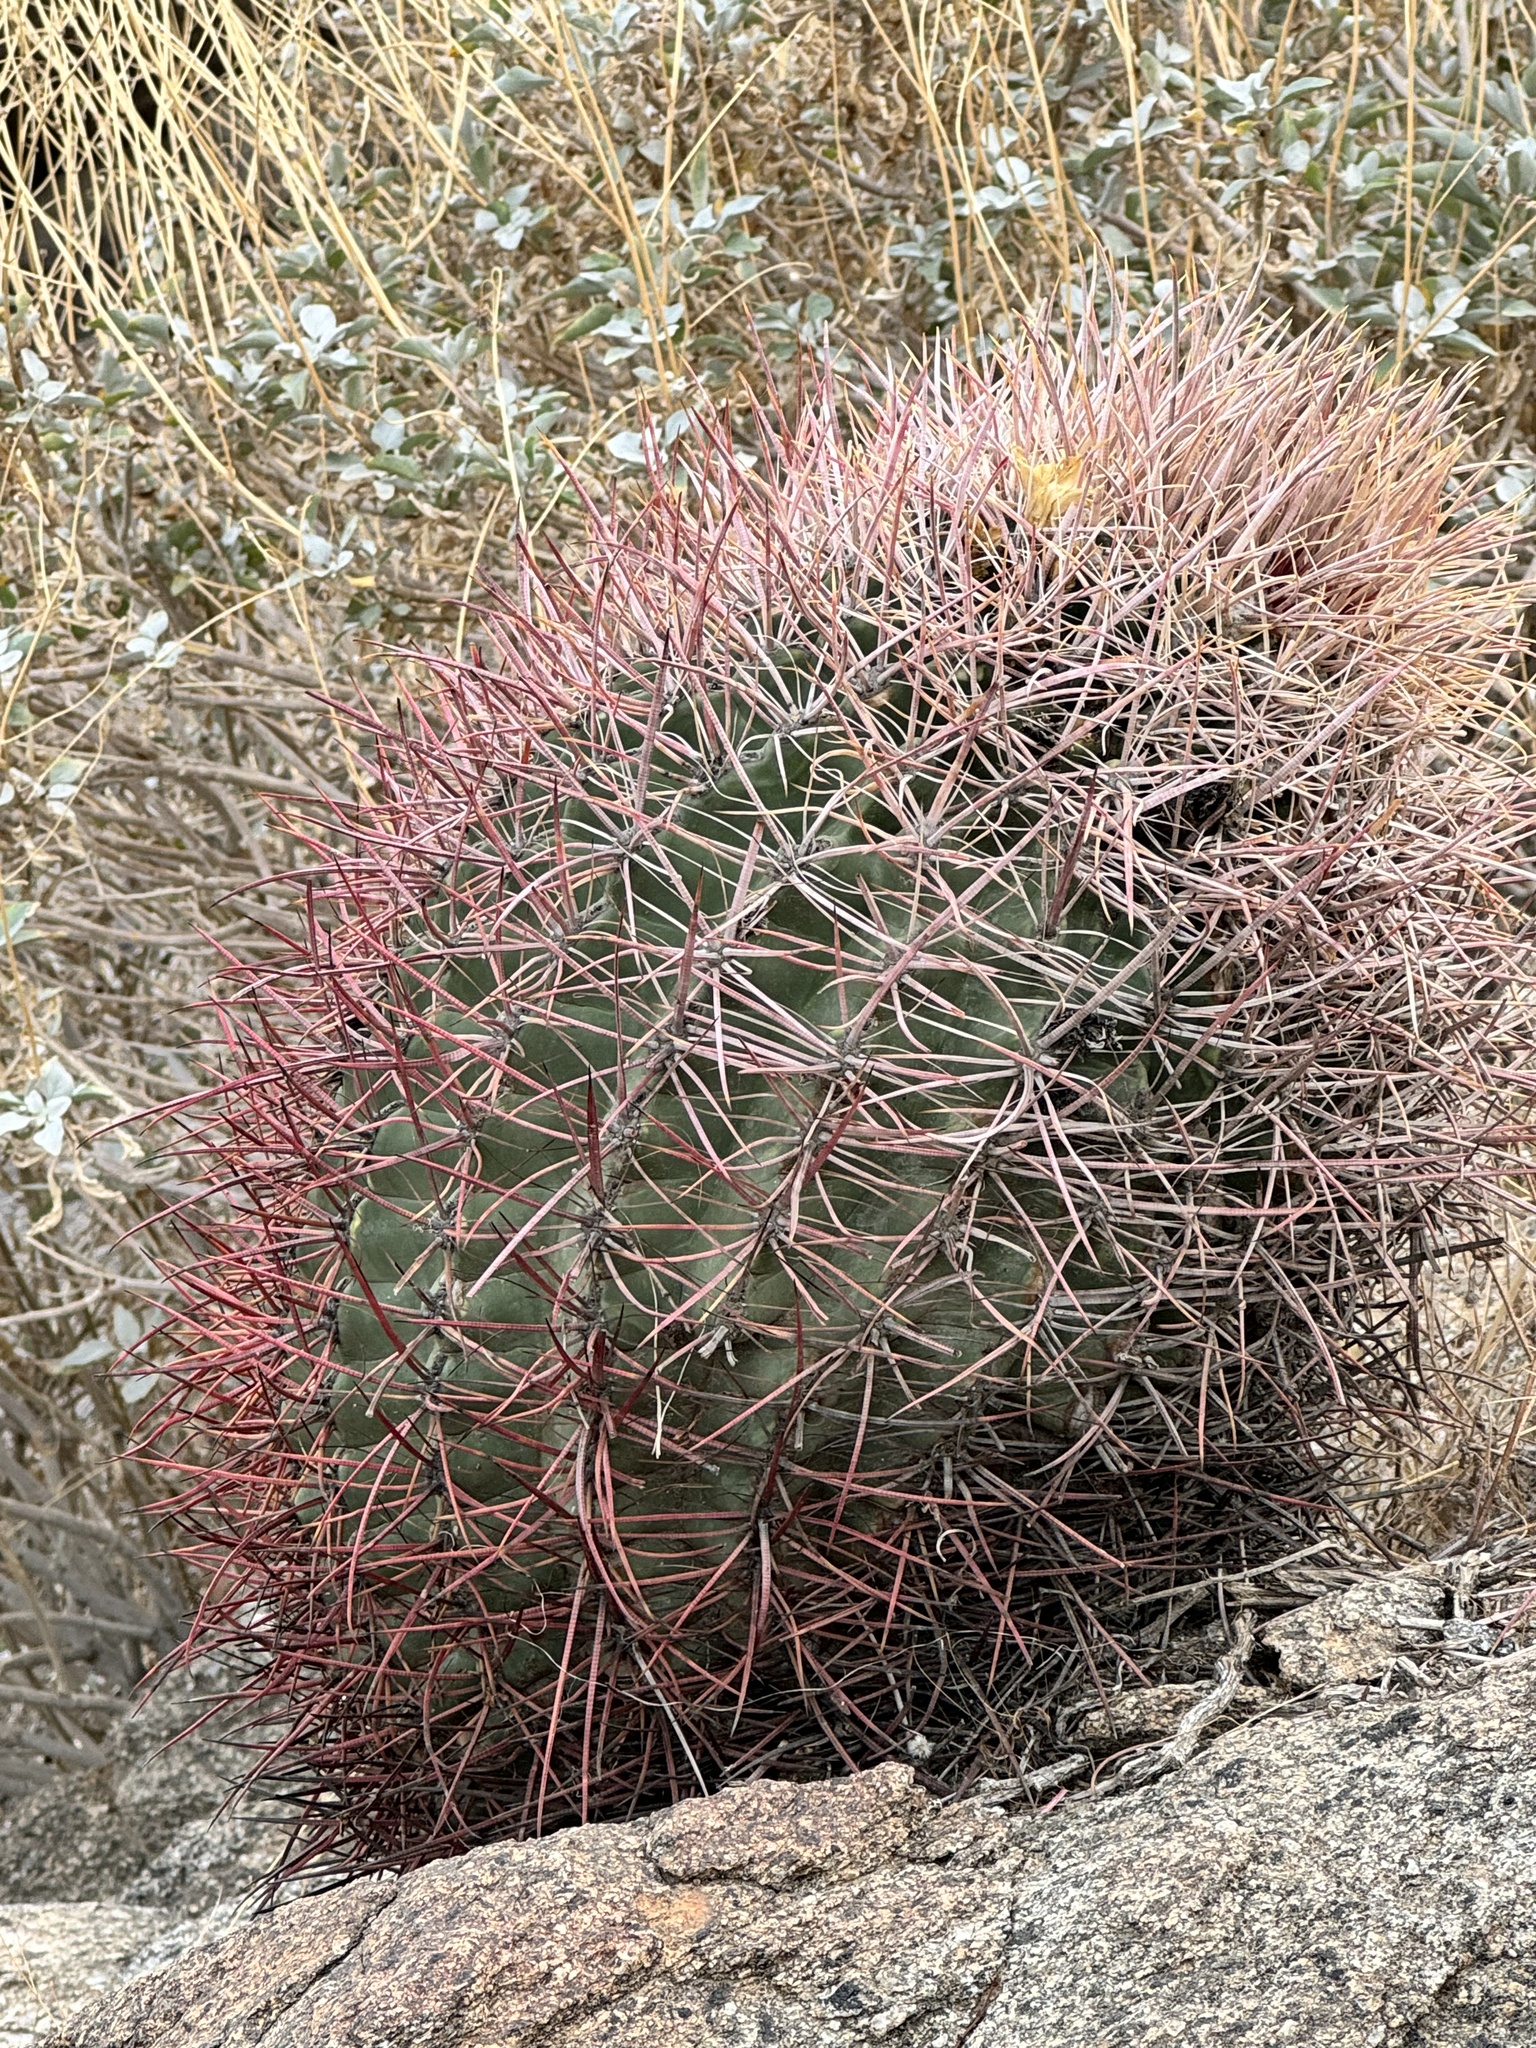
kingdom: Plantae
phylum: Tracheophyta
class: Magnoliopsida
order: Caryophyllales
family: Cactaceae
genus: Ferocactus
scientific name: Ferocactus cylindraceus
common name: California barrel cactus
